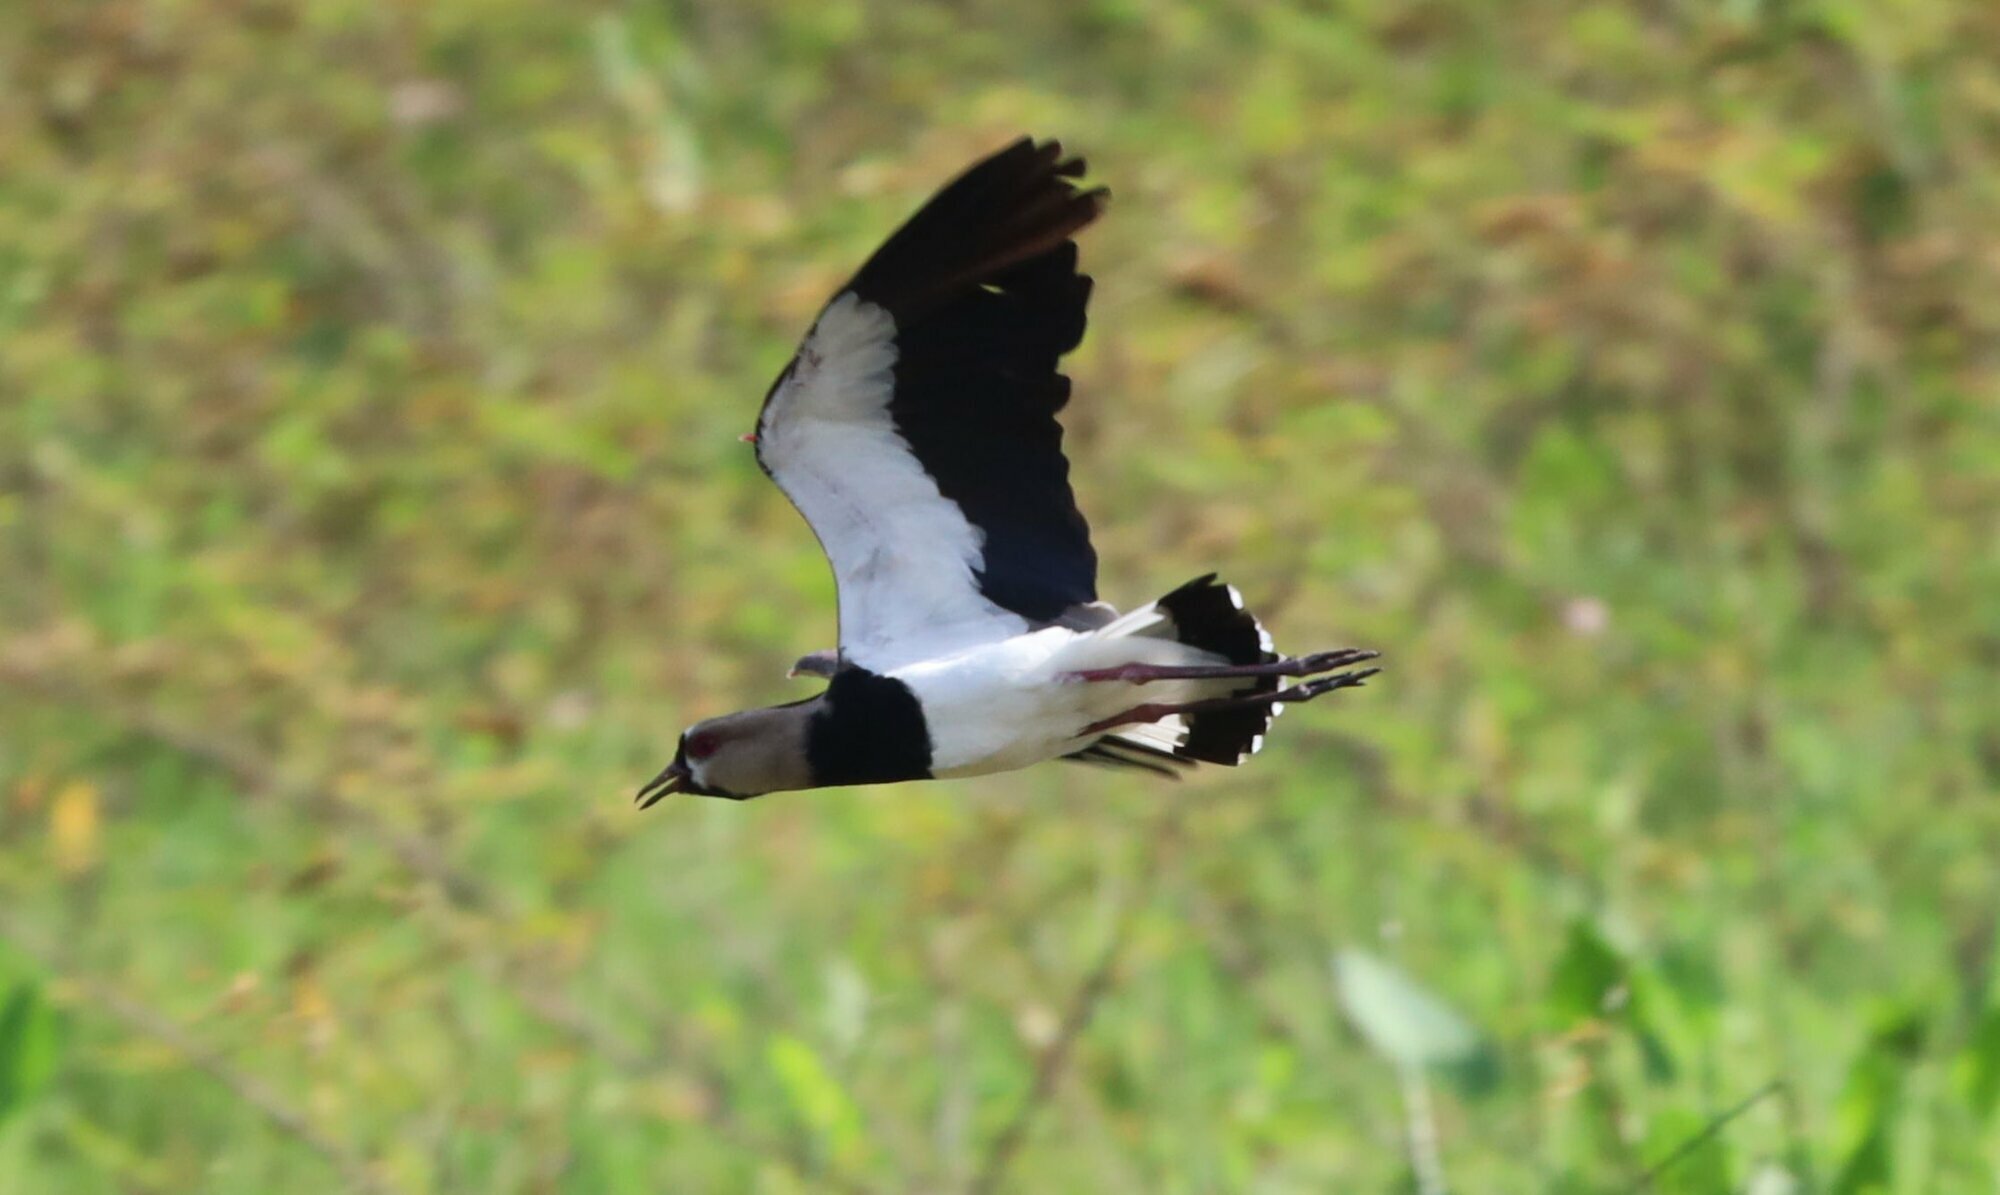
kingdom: Animalia
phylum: Chordata
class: Aves
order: Charadriiformes
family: Charadriidae
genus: Vanellus
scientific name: Vanellus chilensis
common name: Southern lapwing
